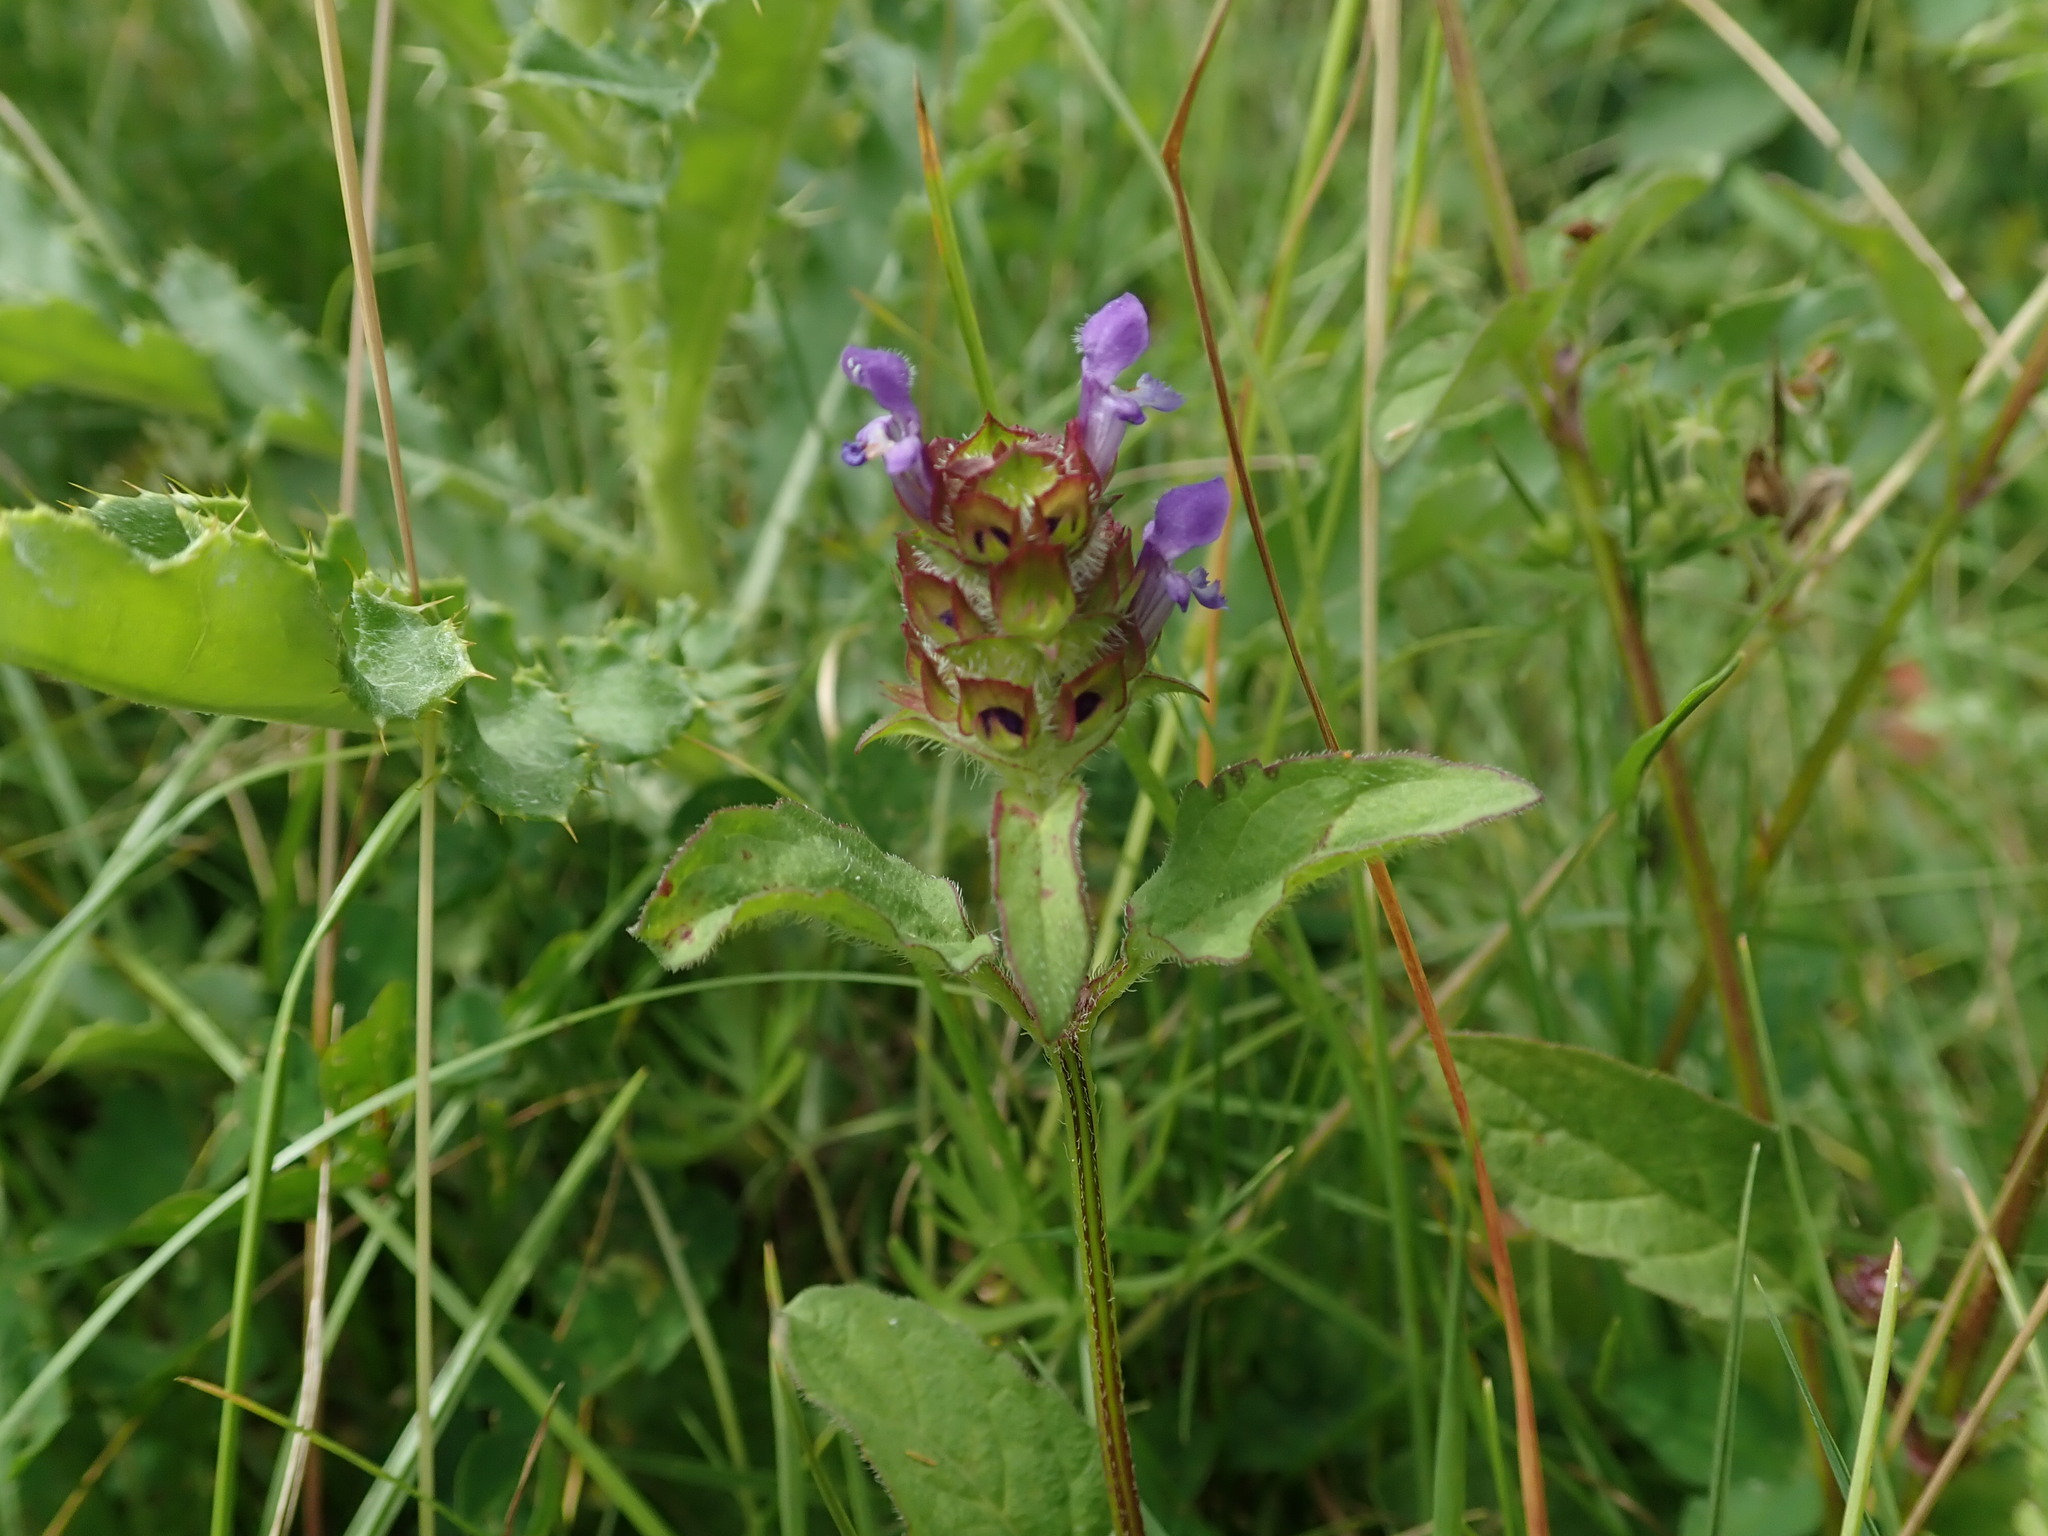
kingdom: Plantae
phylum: Tracheophyta
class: Magnoliopsida
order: Lamiales
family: Lamiaceae
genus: Prunella
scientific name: Prunella vulgaris
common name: Heal-all
